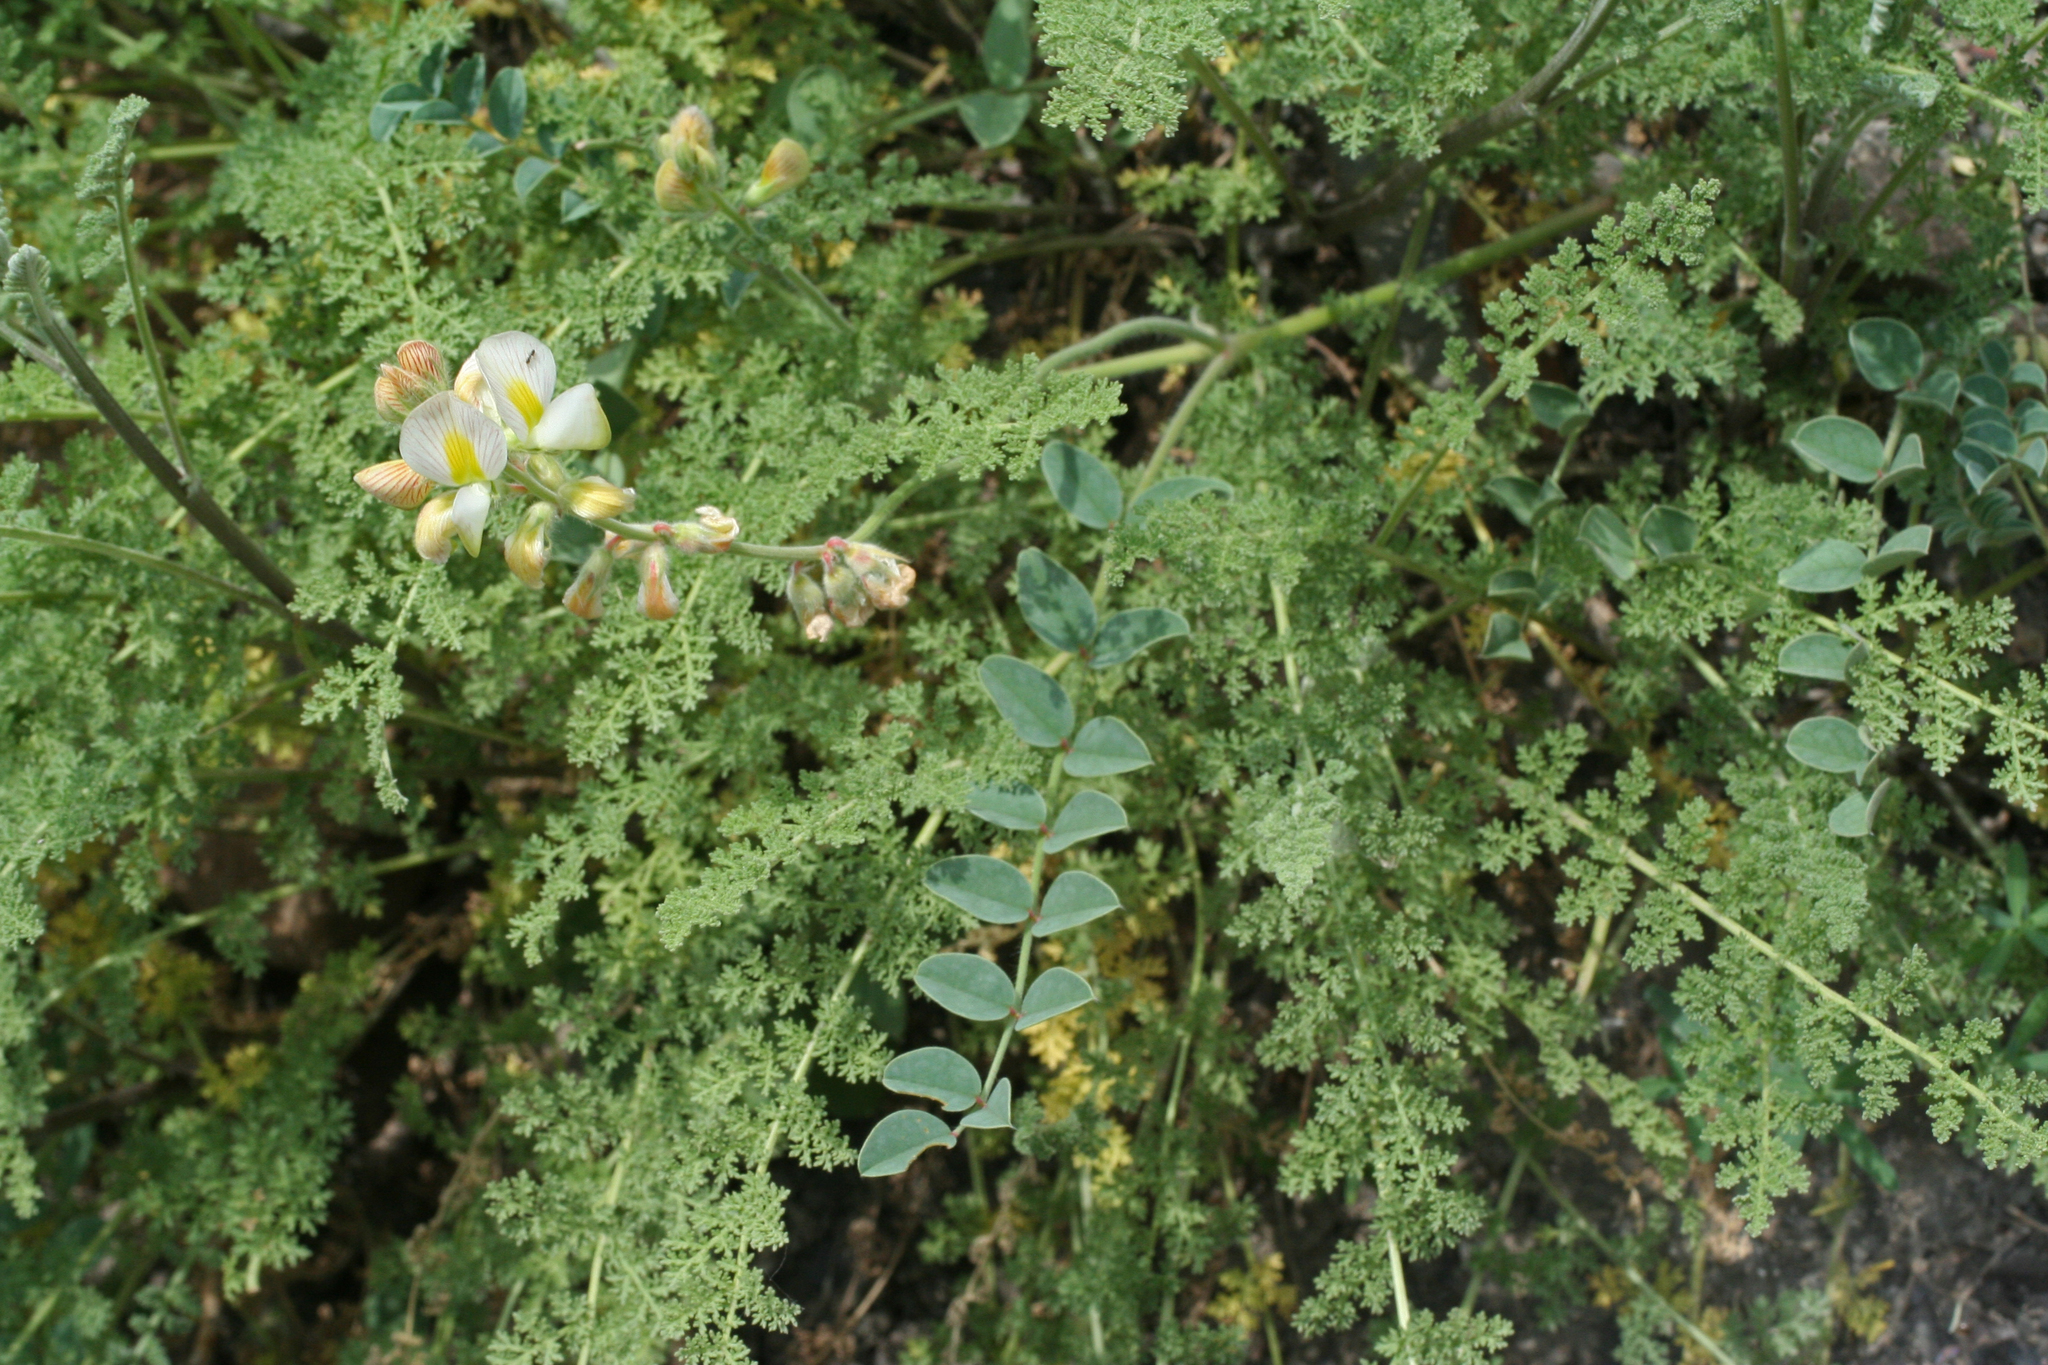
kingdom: Plantae
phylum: Tracheophyta
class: Magnoliopsida
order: Fabales
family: Fabaceae
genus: Onobrychis
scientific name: Onobrychis bobrovii
